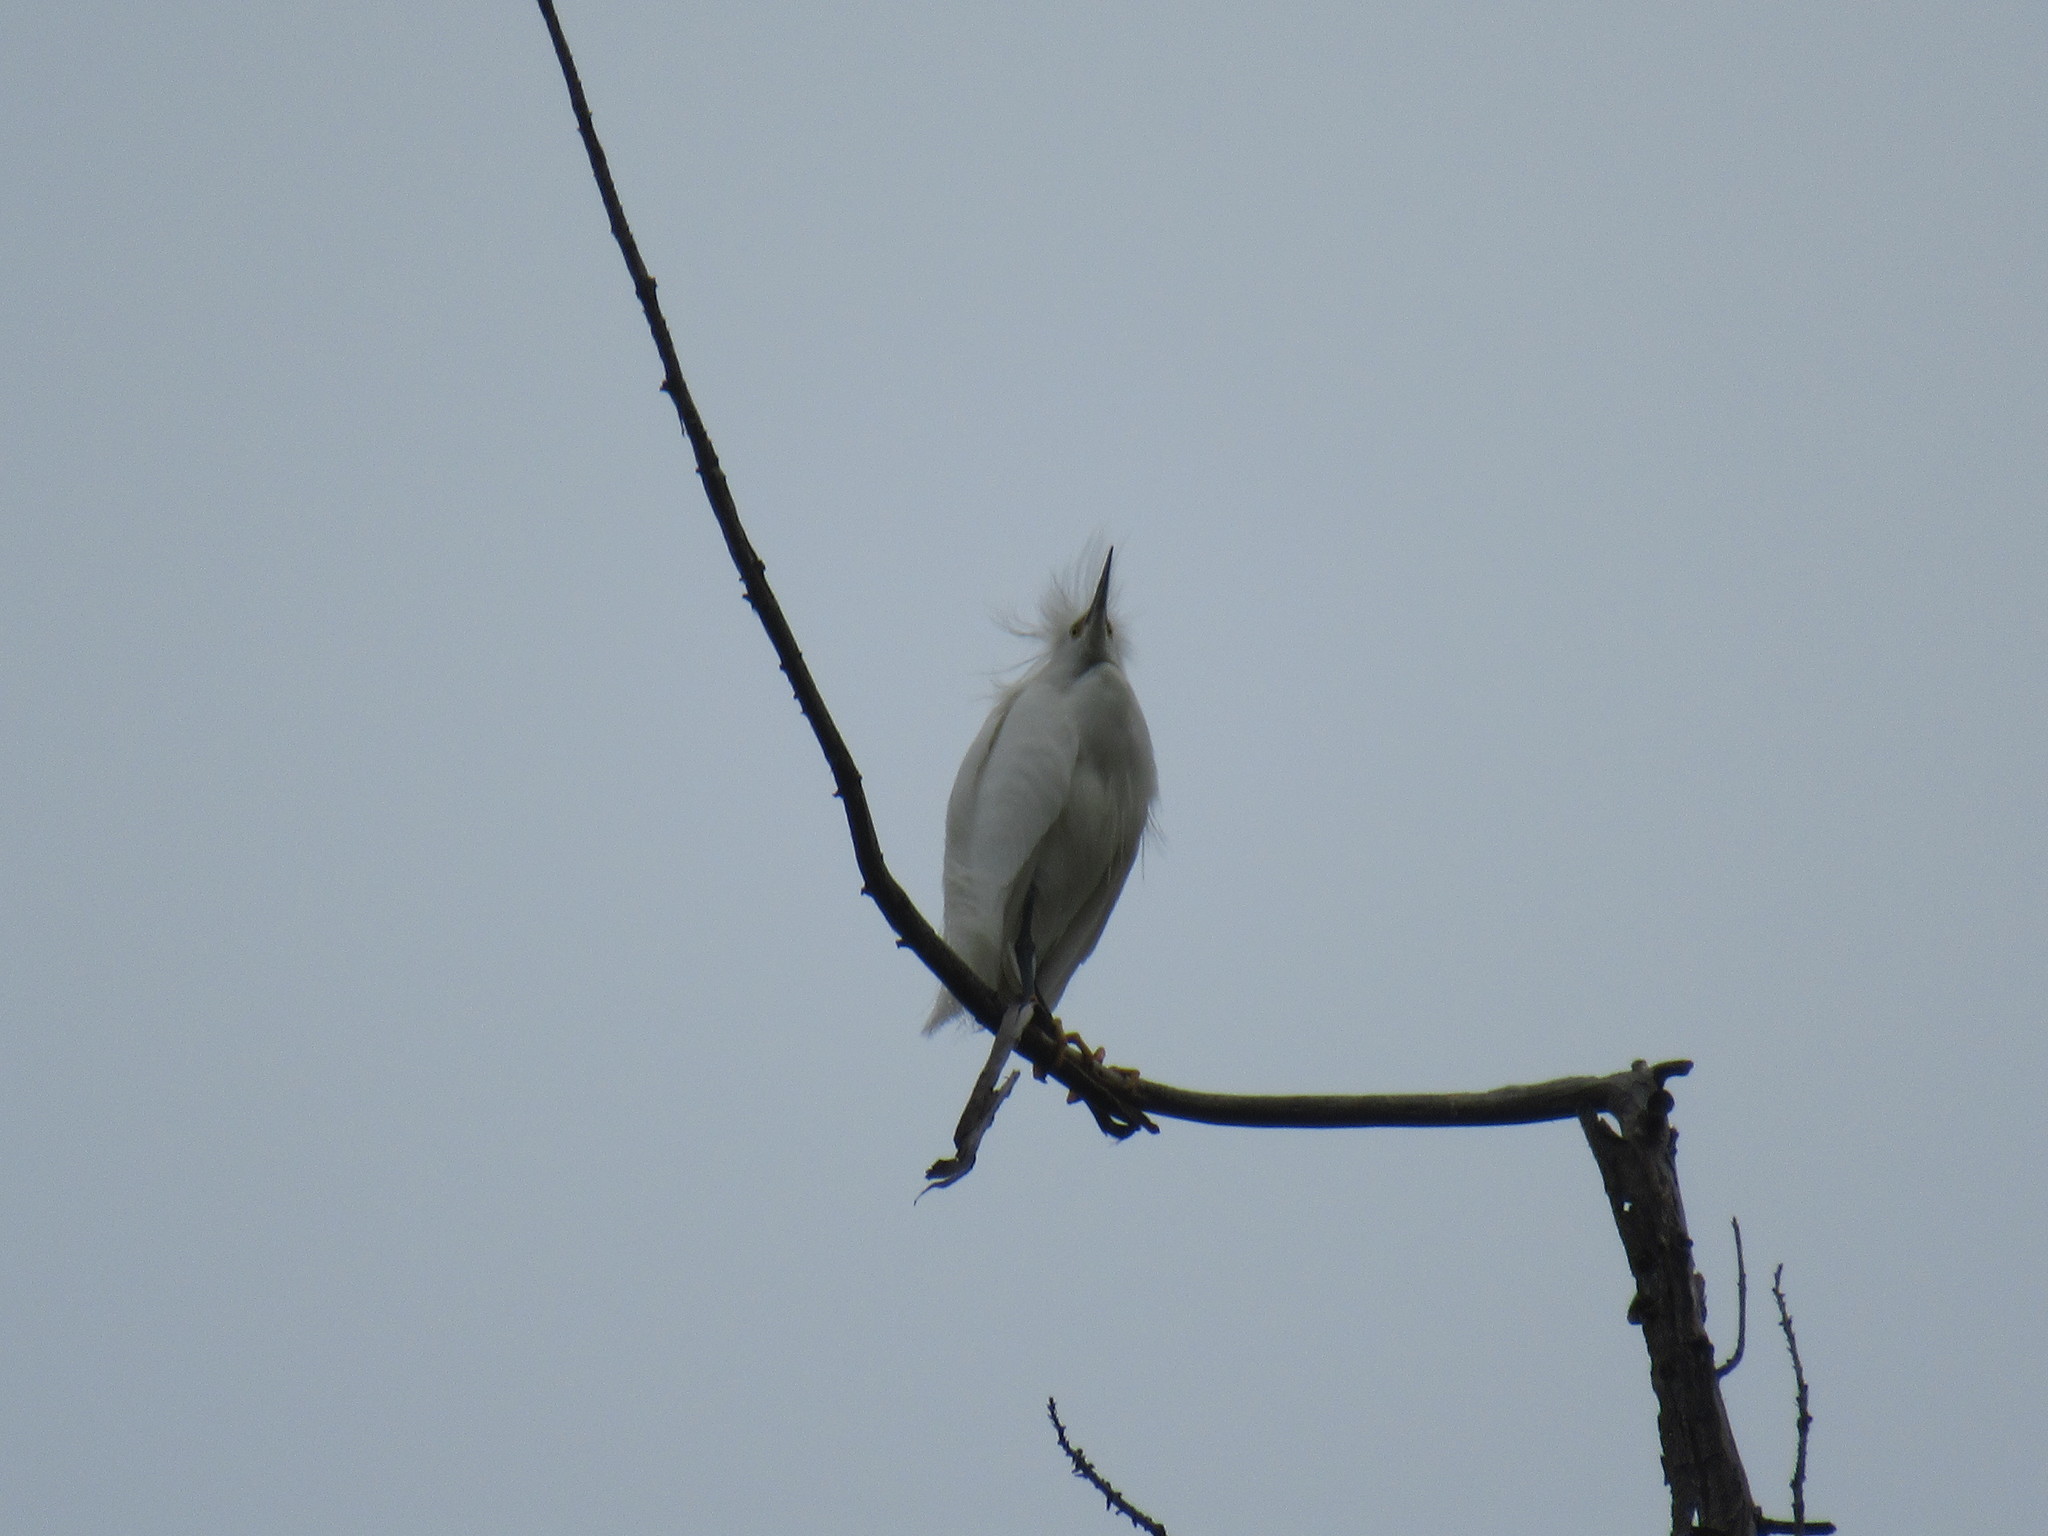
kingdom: Animalia
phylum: Chordata
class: Aves
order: Pelecaniformes
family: Ardeidae
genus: Egretta
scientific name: Egretta thula
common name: Snowy egret
